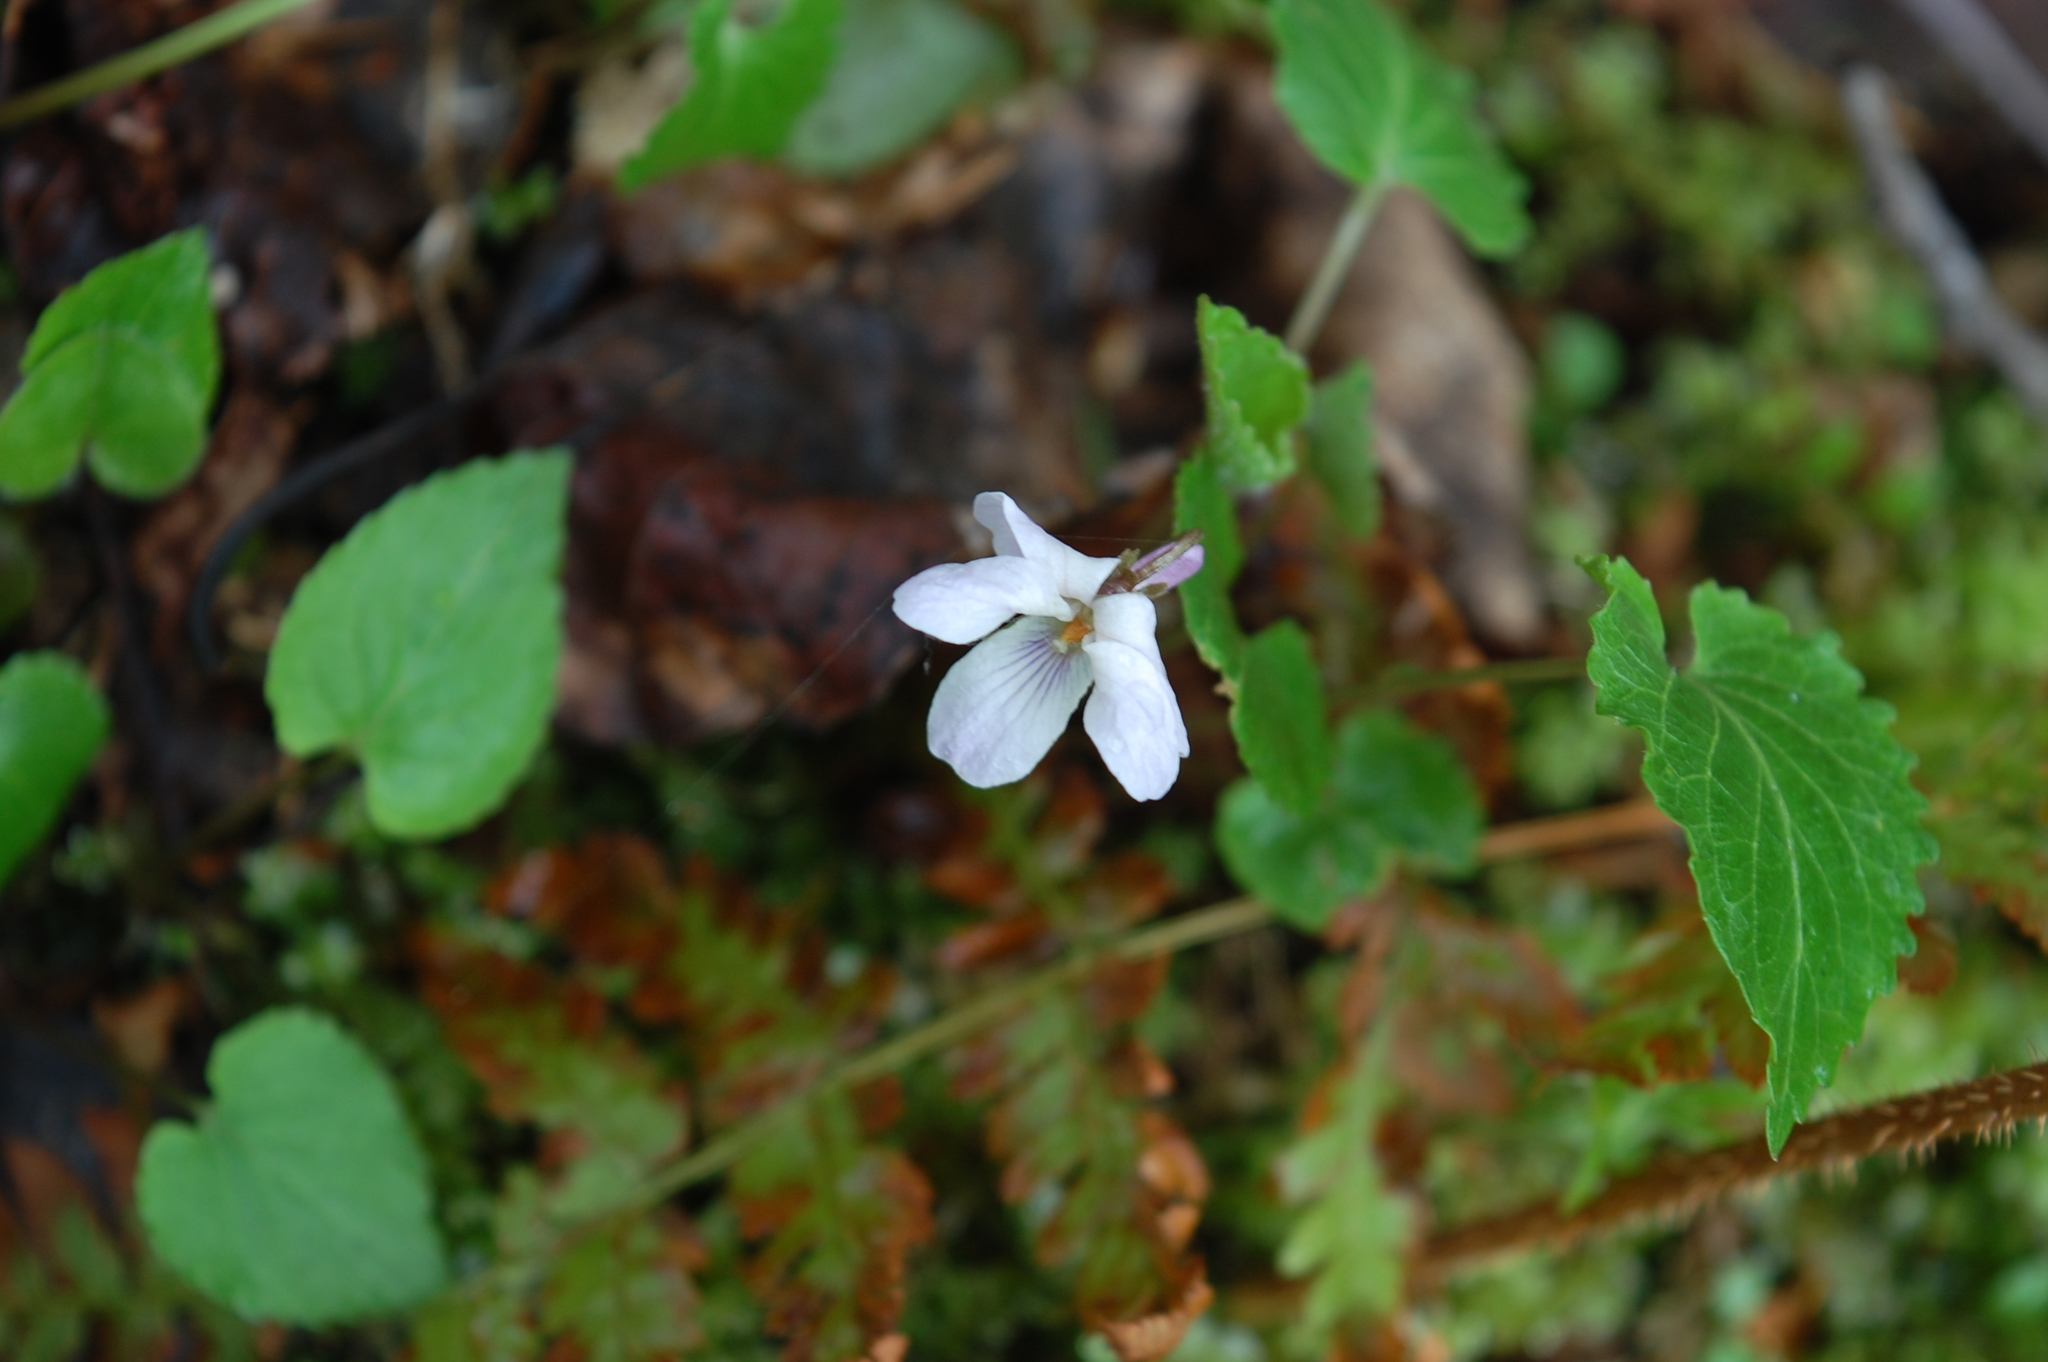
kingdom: Plantae
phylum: Tracheophyta
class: Magnoliopsida
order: Malpighiales
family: Violaceae
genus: Viola
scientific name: Viola selkirkii
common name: Selkirk's violet
